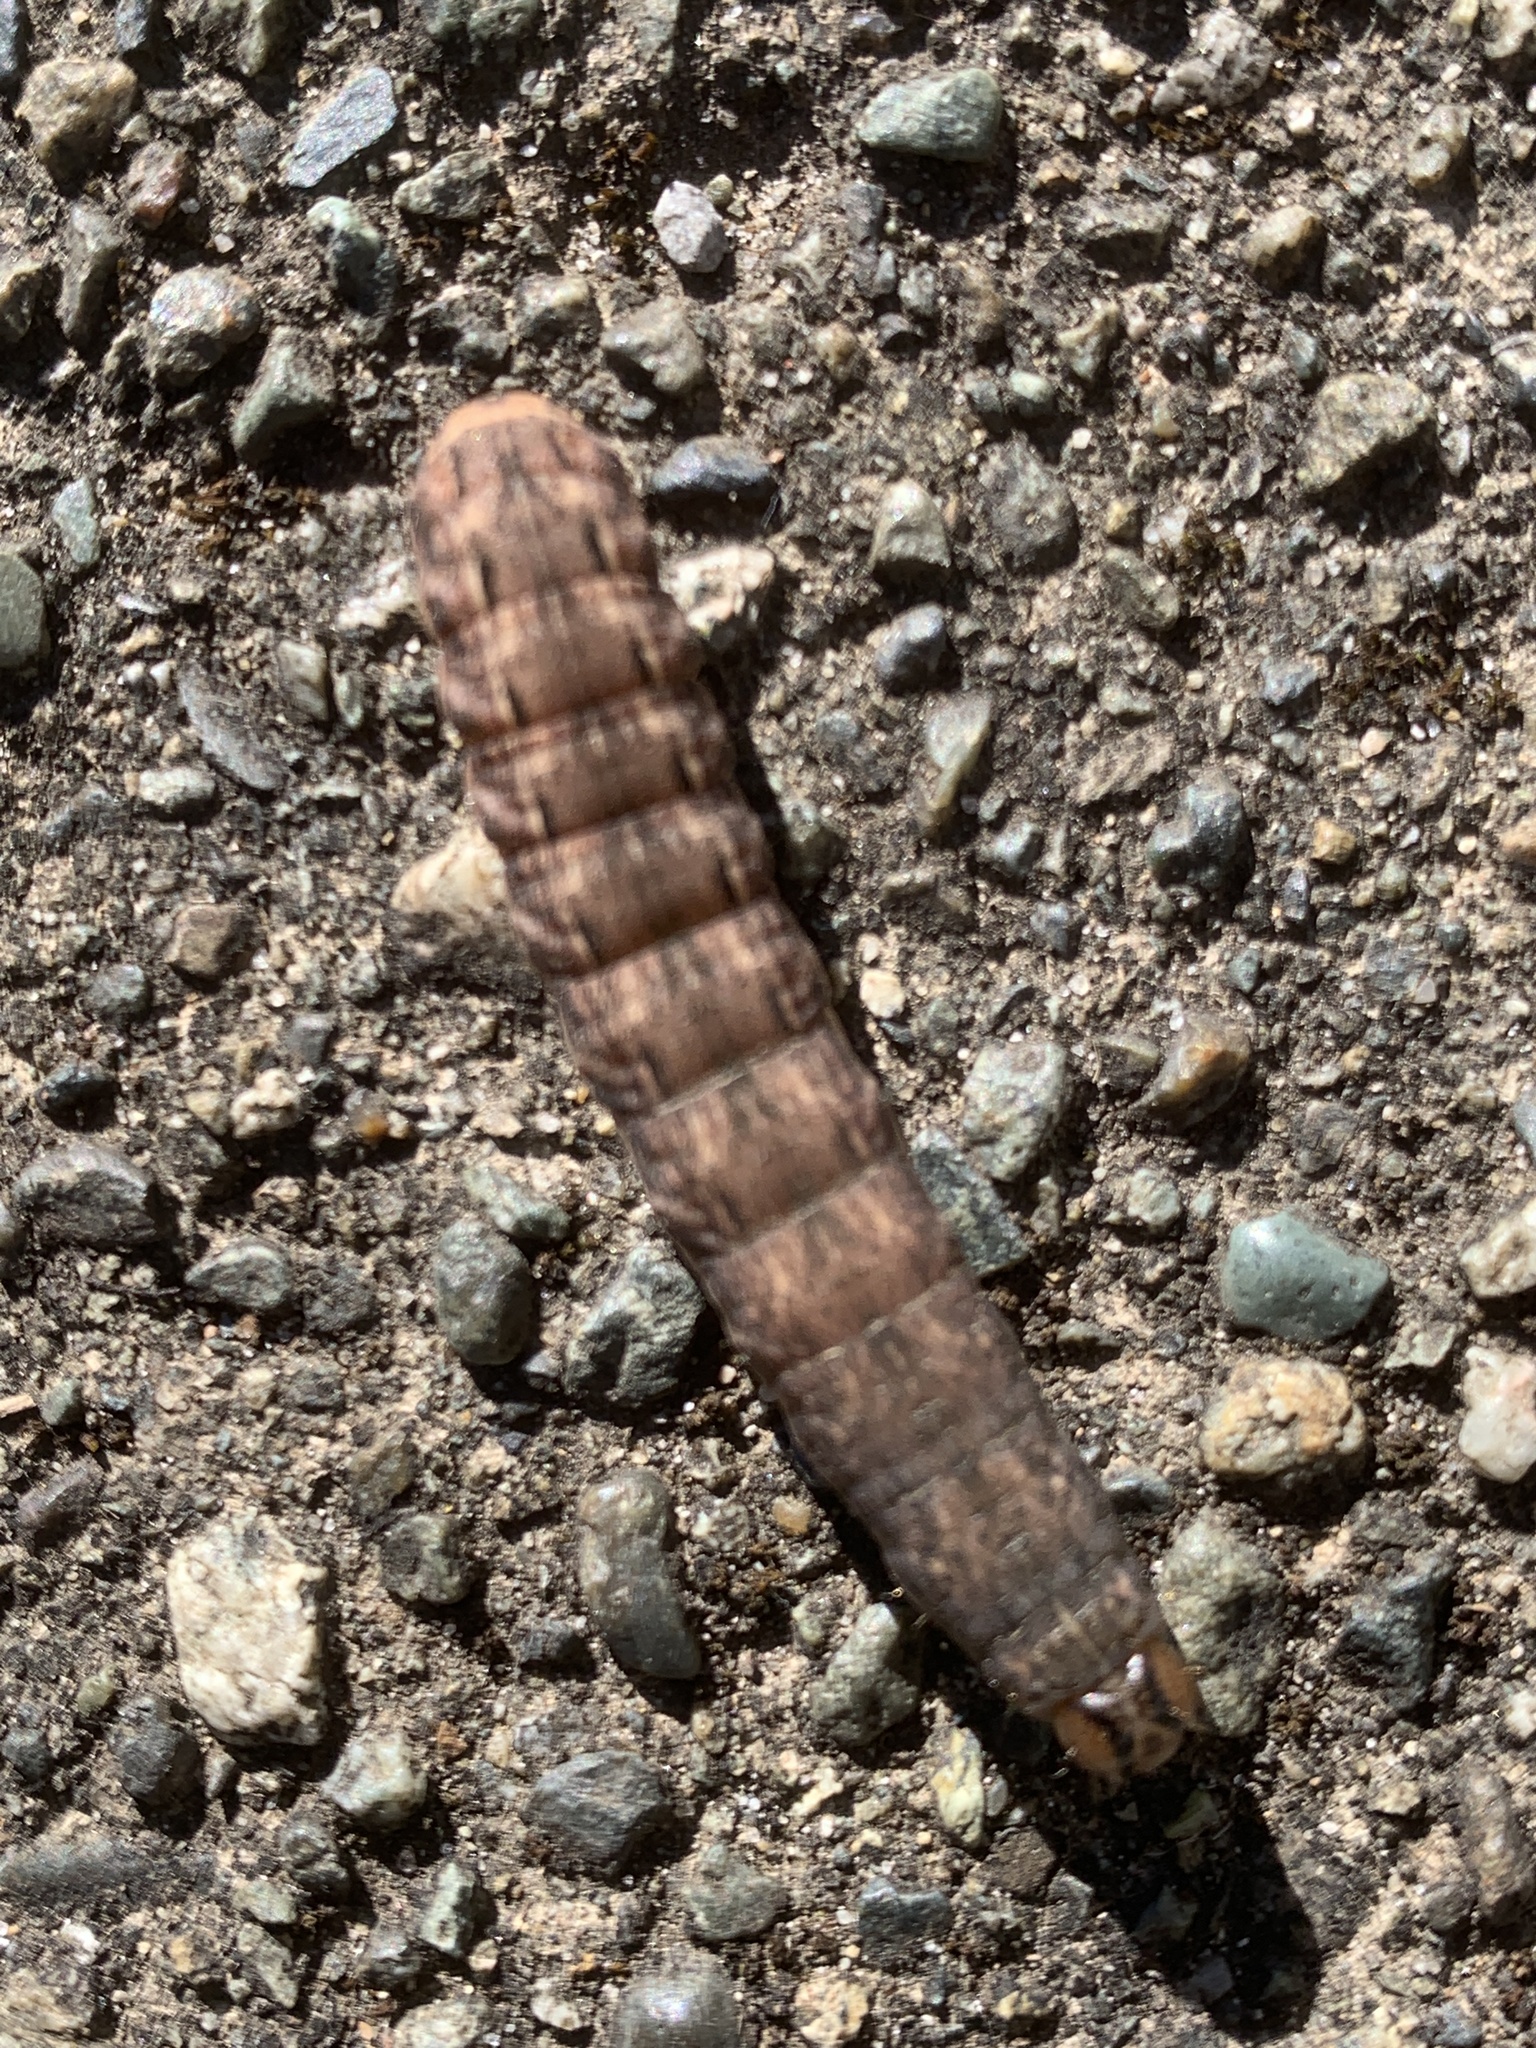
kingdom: Animalia
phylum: Arthropoda
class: Insecta
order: Lepidoptera
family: Noctuidae
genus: Noctua
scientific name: Noctua pronuba
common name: Large yellow underwing
